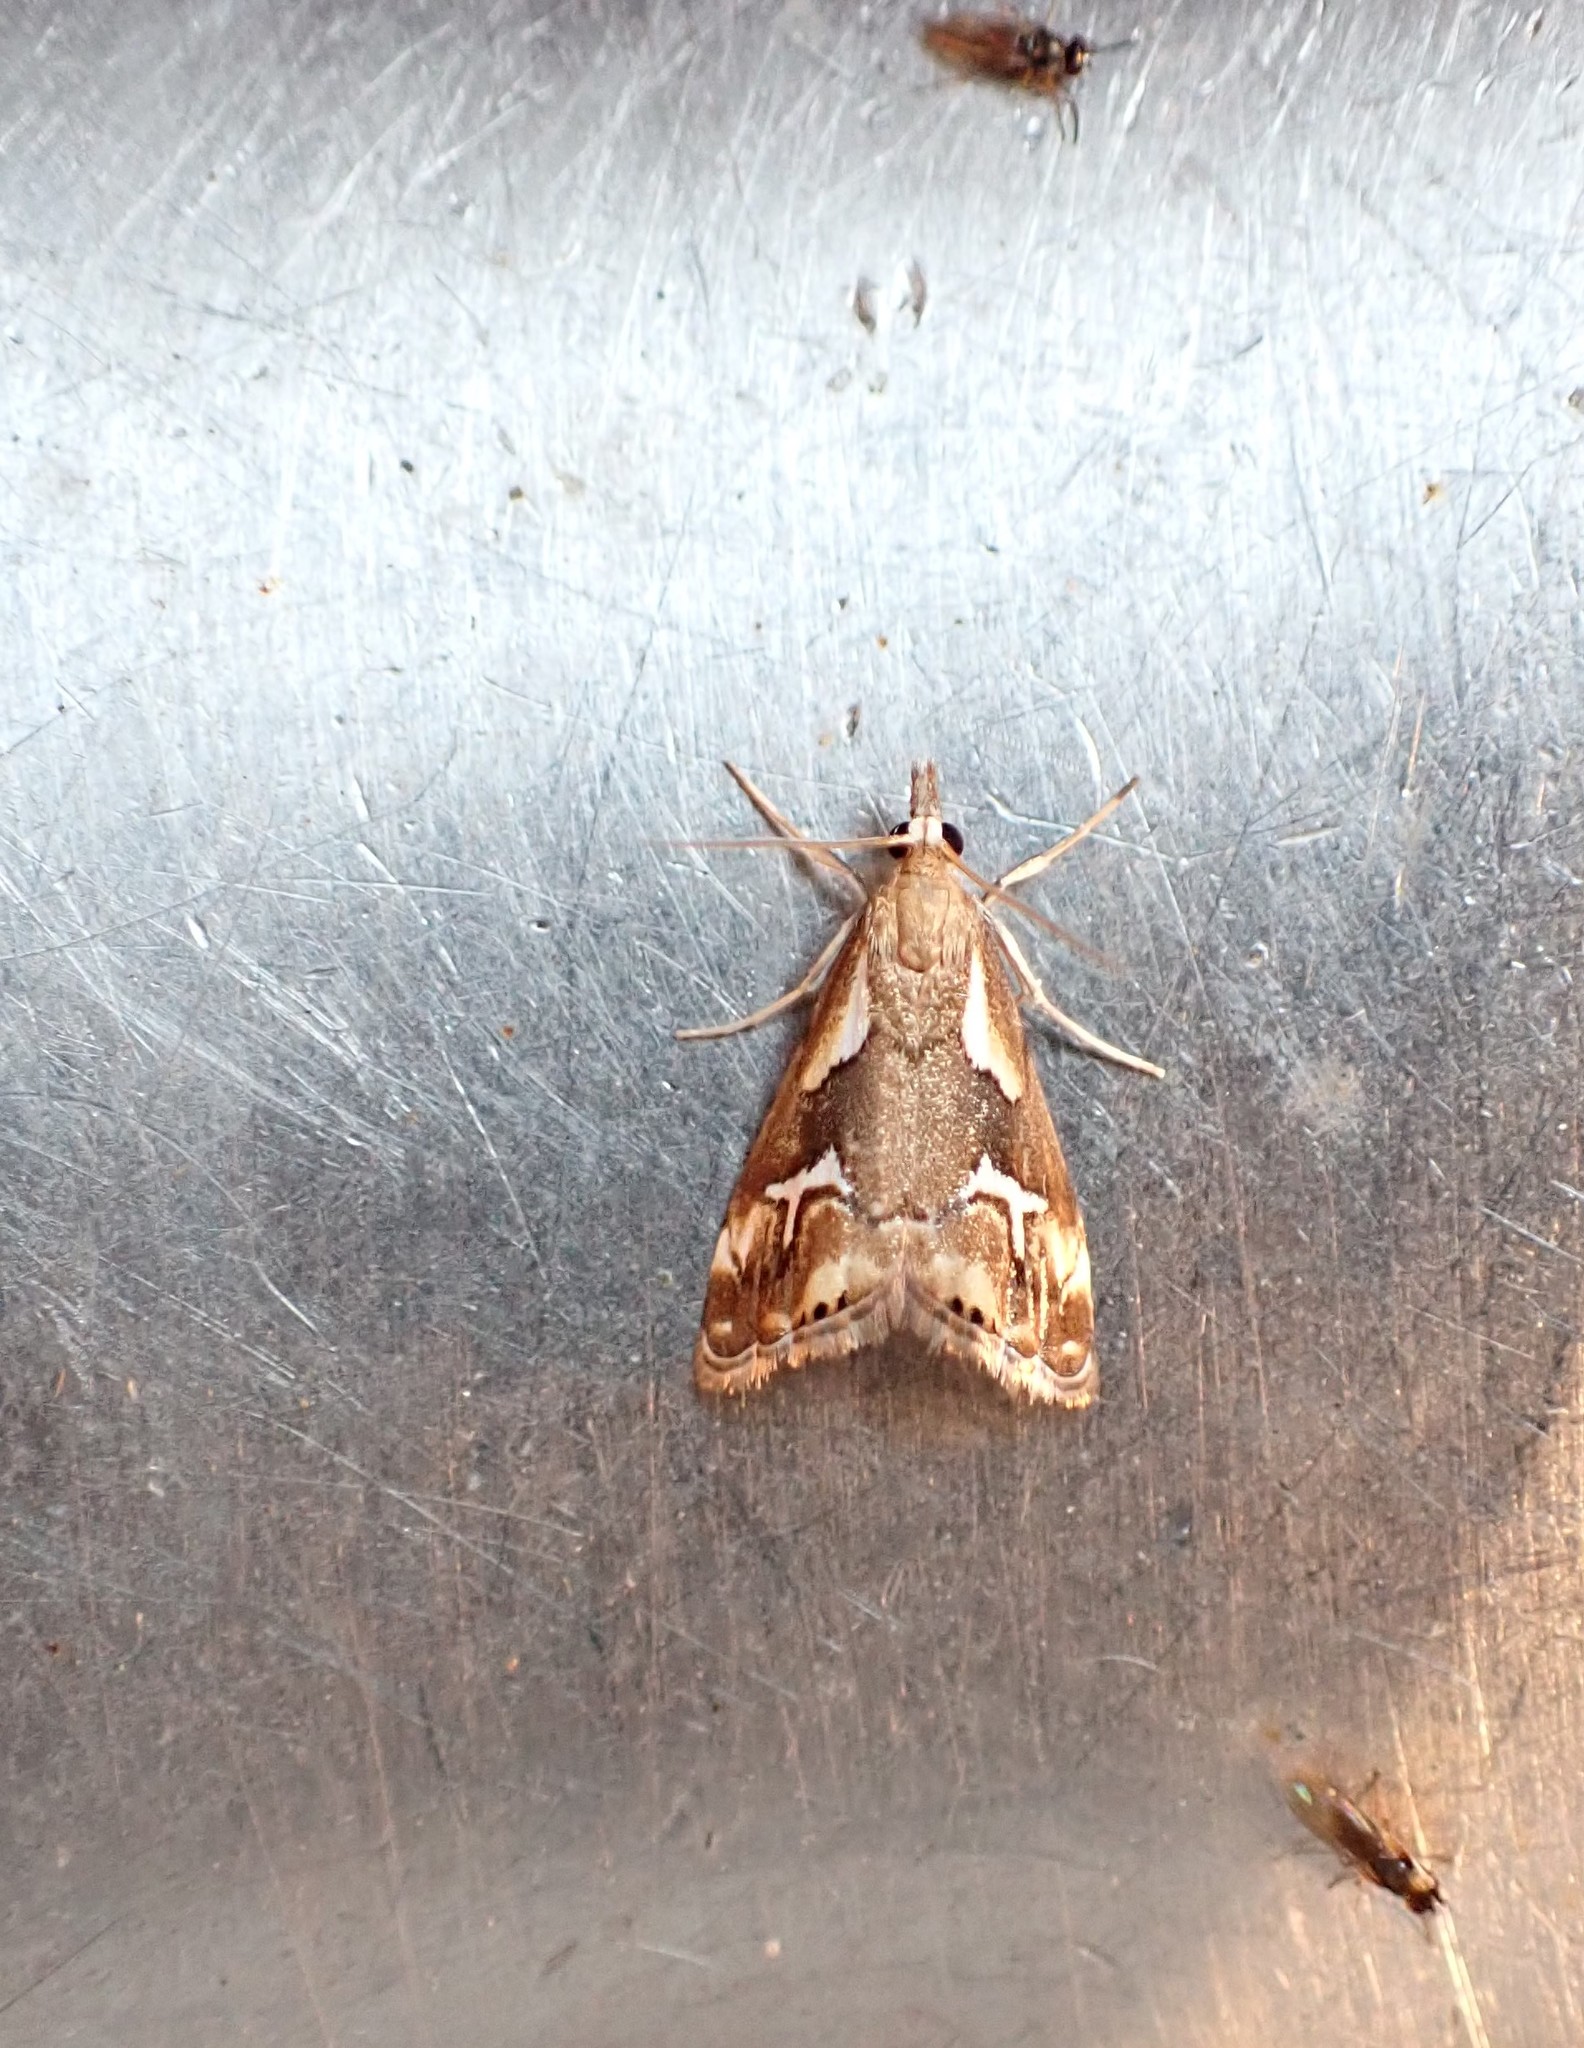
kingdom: Animalia
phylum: Arthropoda
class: Insecta
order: Lepidoptera
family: Crambidae
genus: Glaucocharis
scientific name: Glaucocharis interruptus
